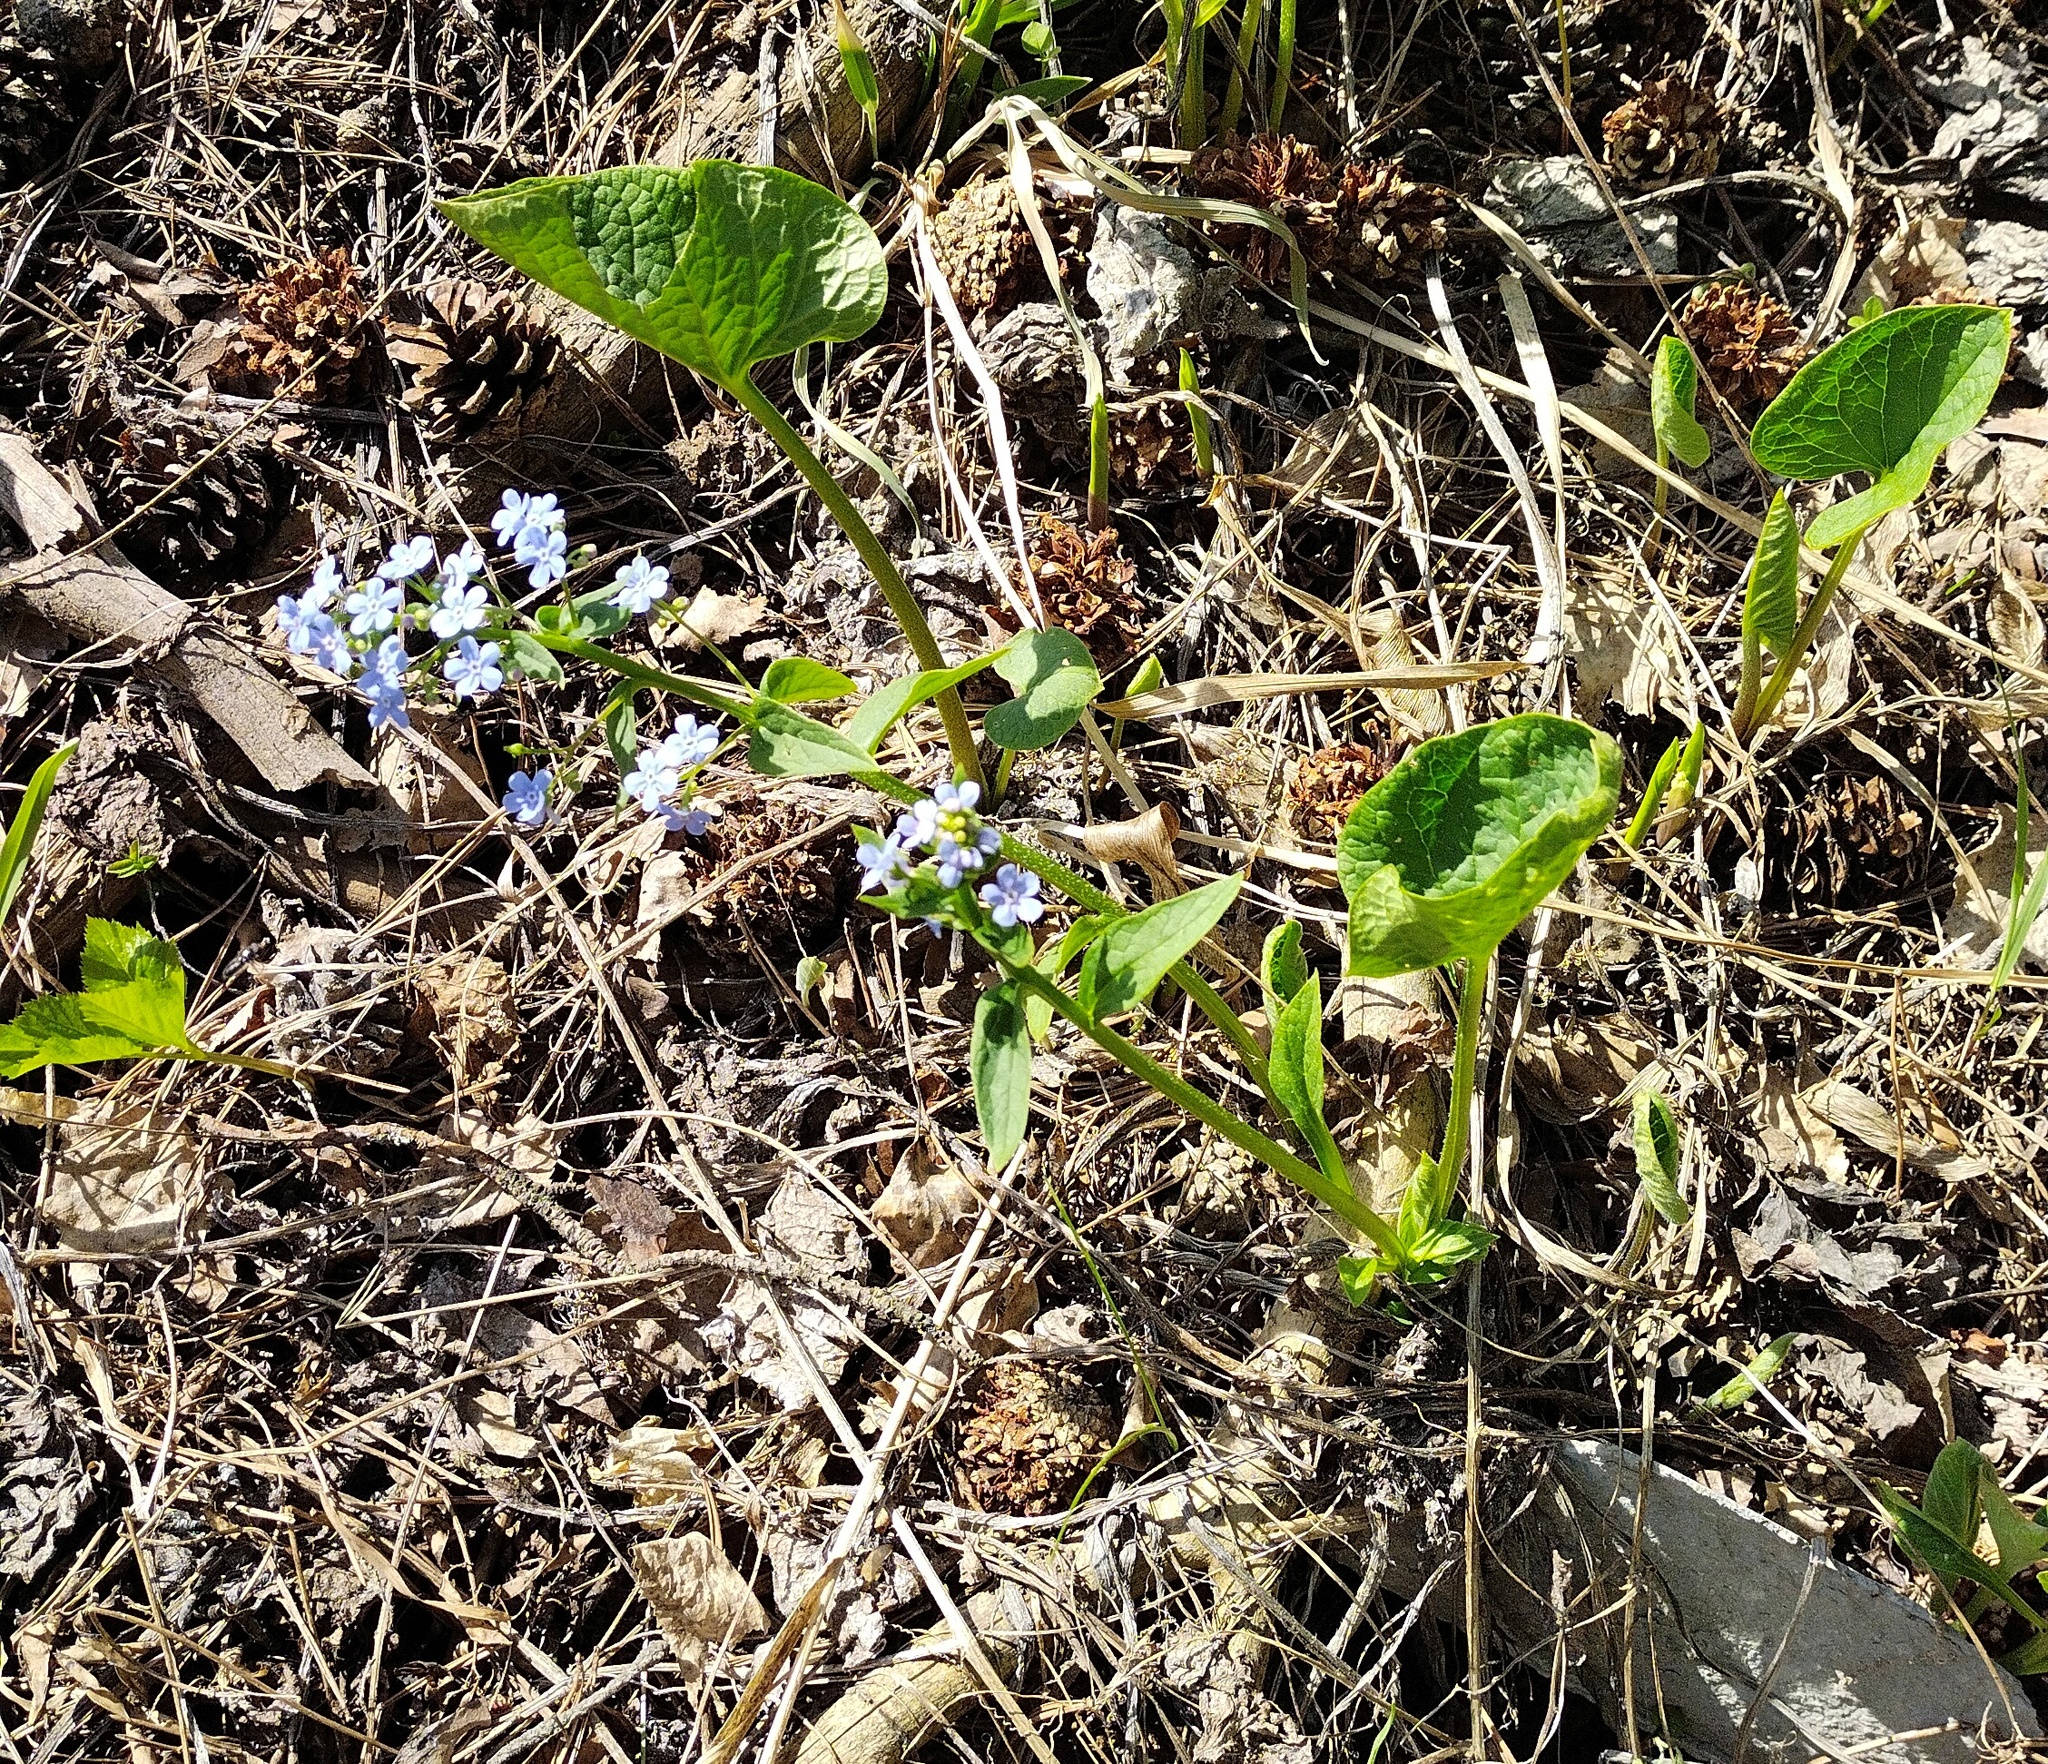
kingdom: Plantae
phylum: Tracheophyta
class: Magnoliopsida
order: Boraginales
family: Boraginaceae
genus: Brunnera
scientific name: Brunnera sibirica
